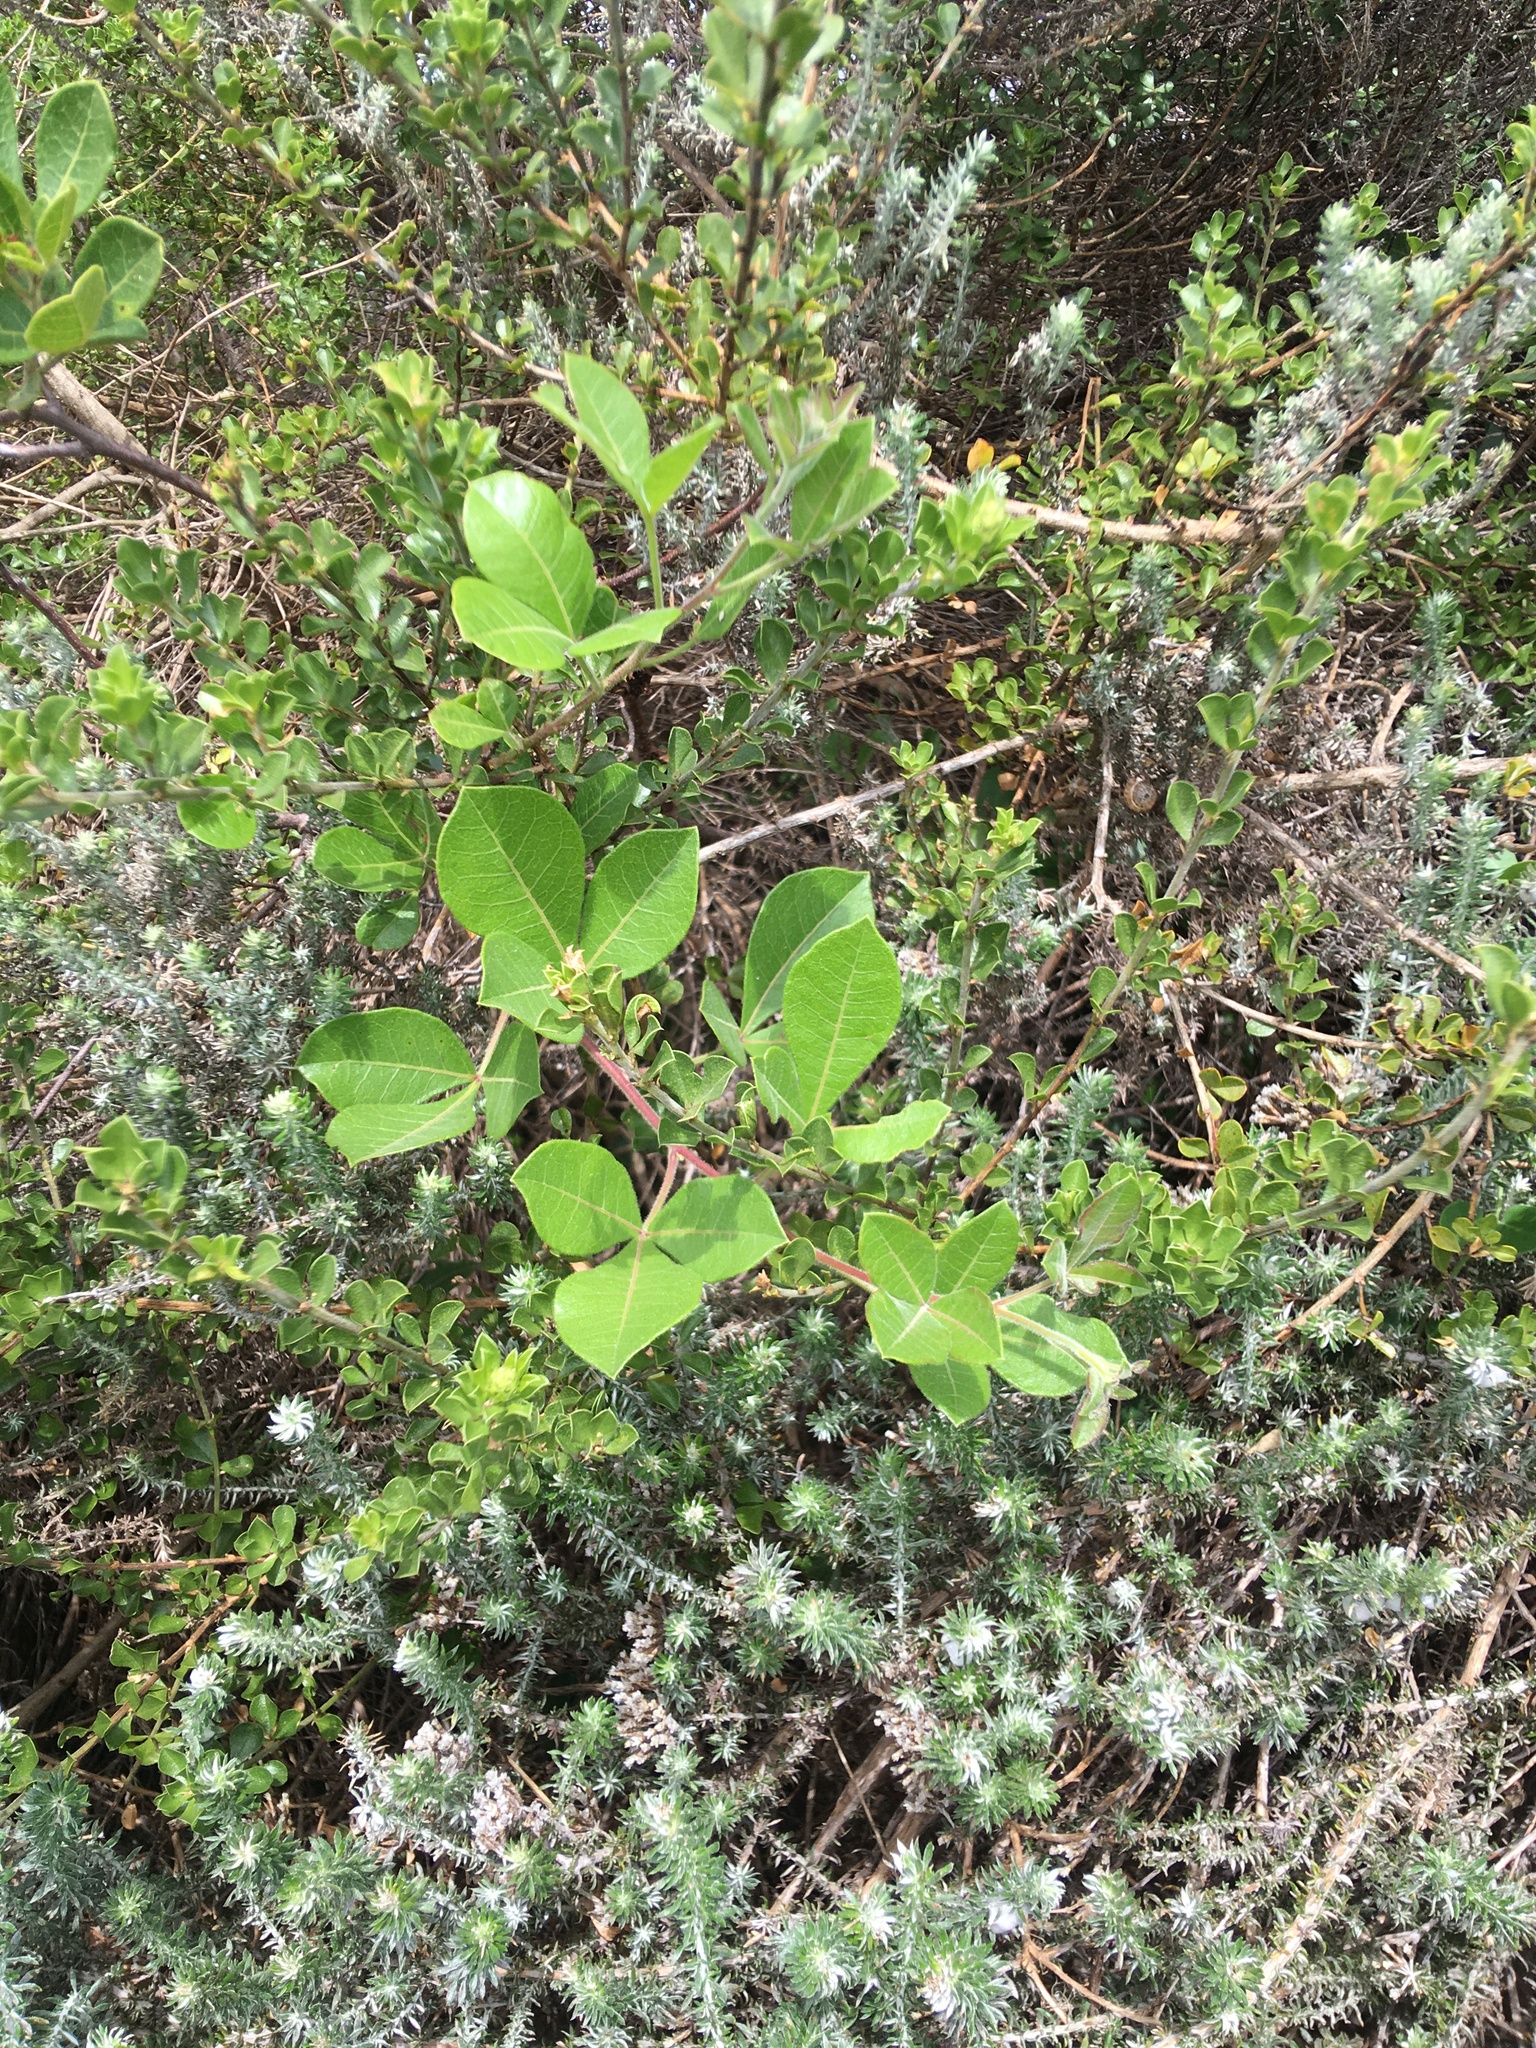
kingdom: Plantae
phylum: Tracheophyta
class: Magnoliopsida
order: Sapindales
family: Anacardiaceae
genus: Searsia
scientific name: Searsia laevigata
